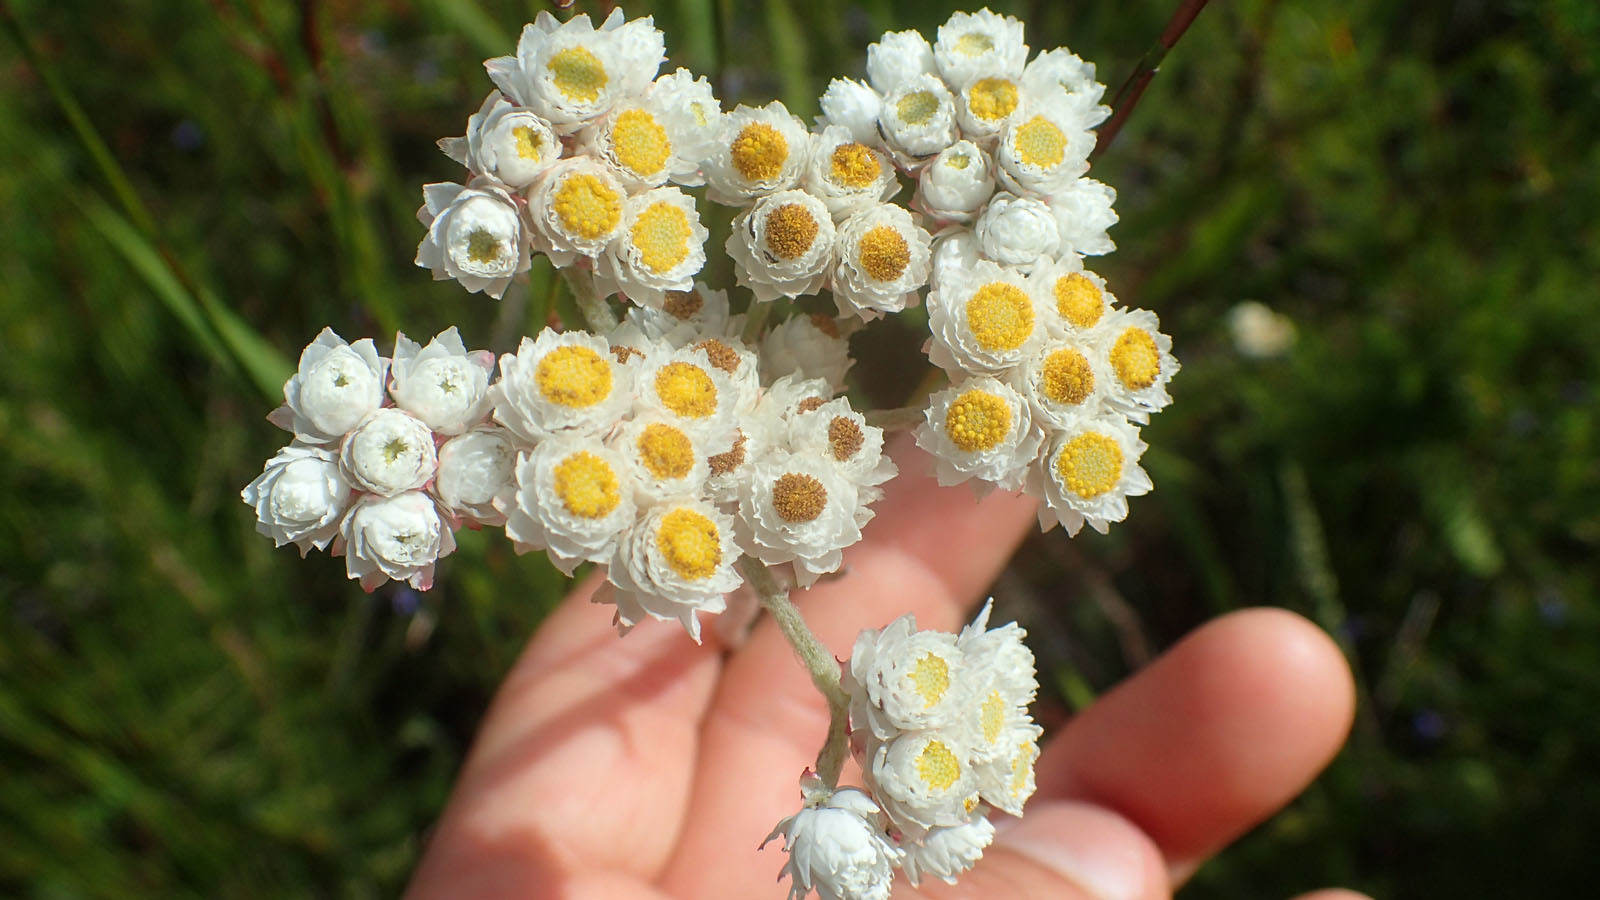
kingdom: Plantae
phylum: Tracheophyta
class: Magnoliopsida
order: Asterales
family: Asteraceae
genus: Helichrysum
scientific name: Helichrysum felinum
